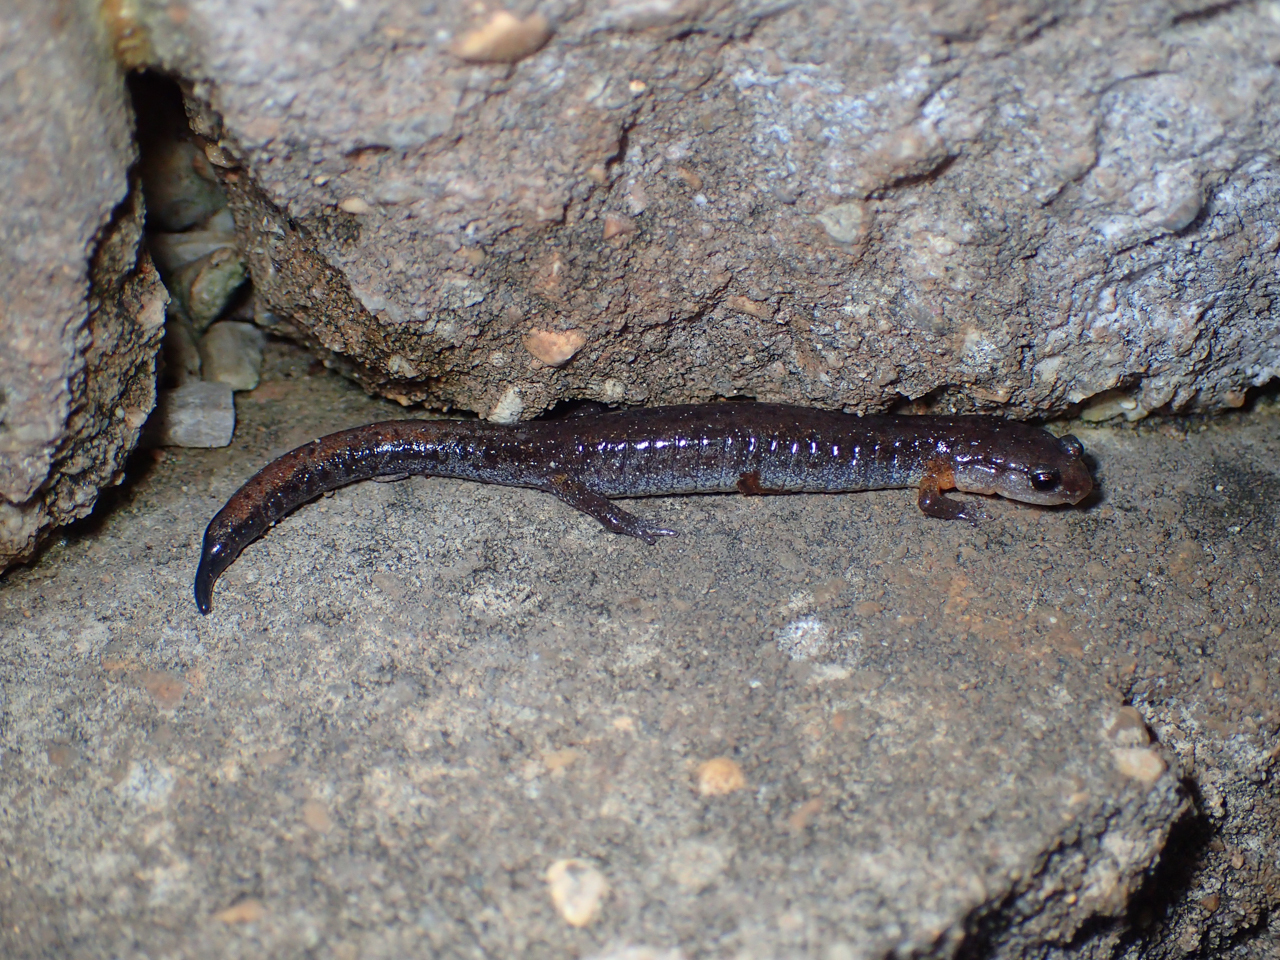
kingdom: Animalia
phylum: Chordata
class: Amphibia
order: Caudata
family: Plethodontidae
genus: Plethodon
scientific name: Plethodon websteri
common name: Webster's salamander
